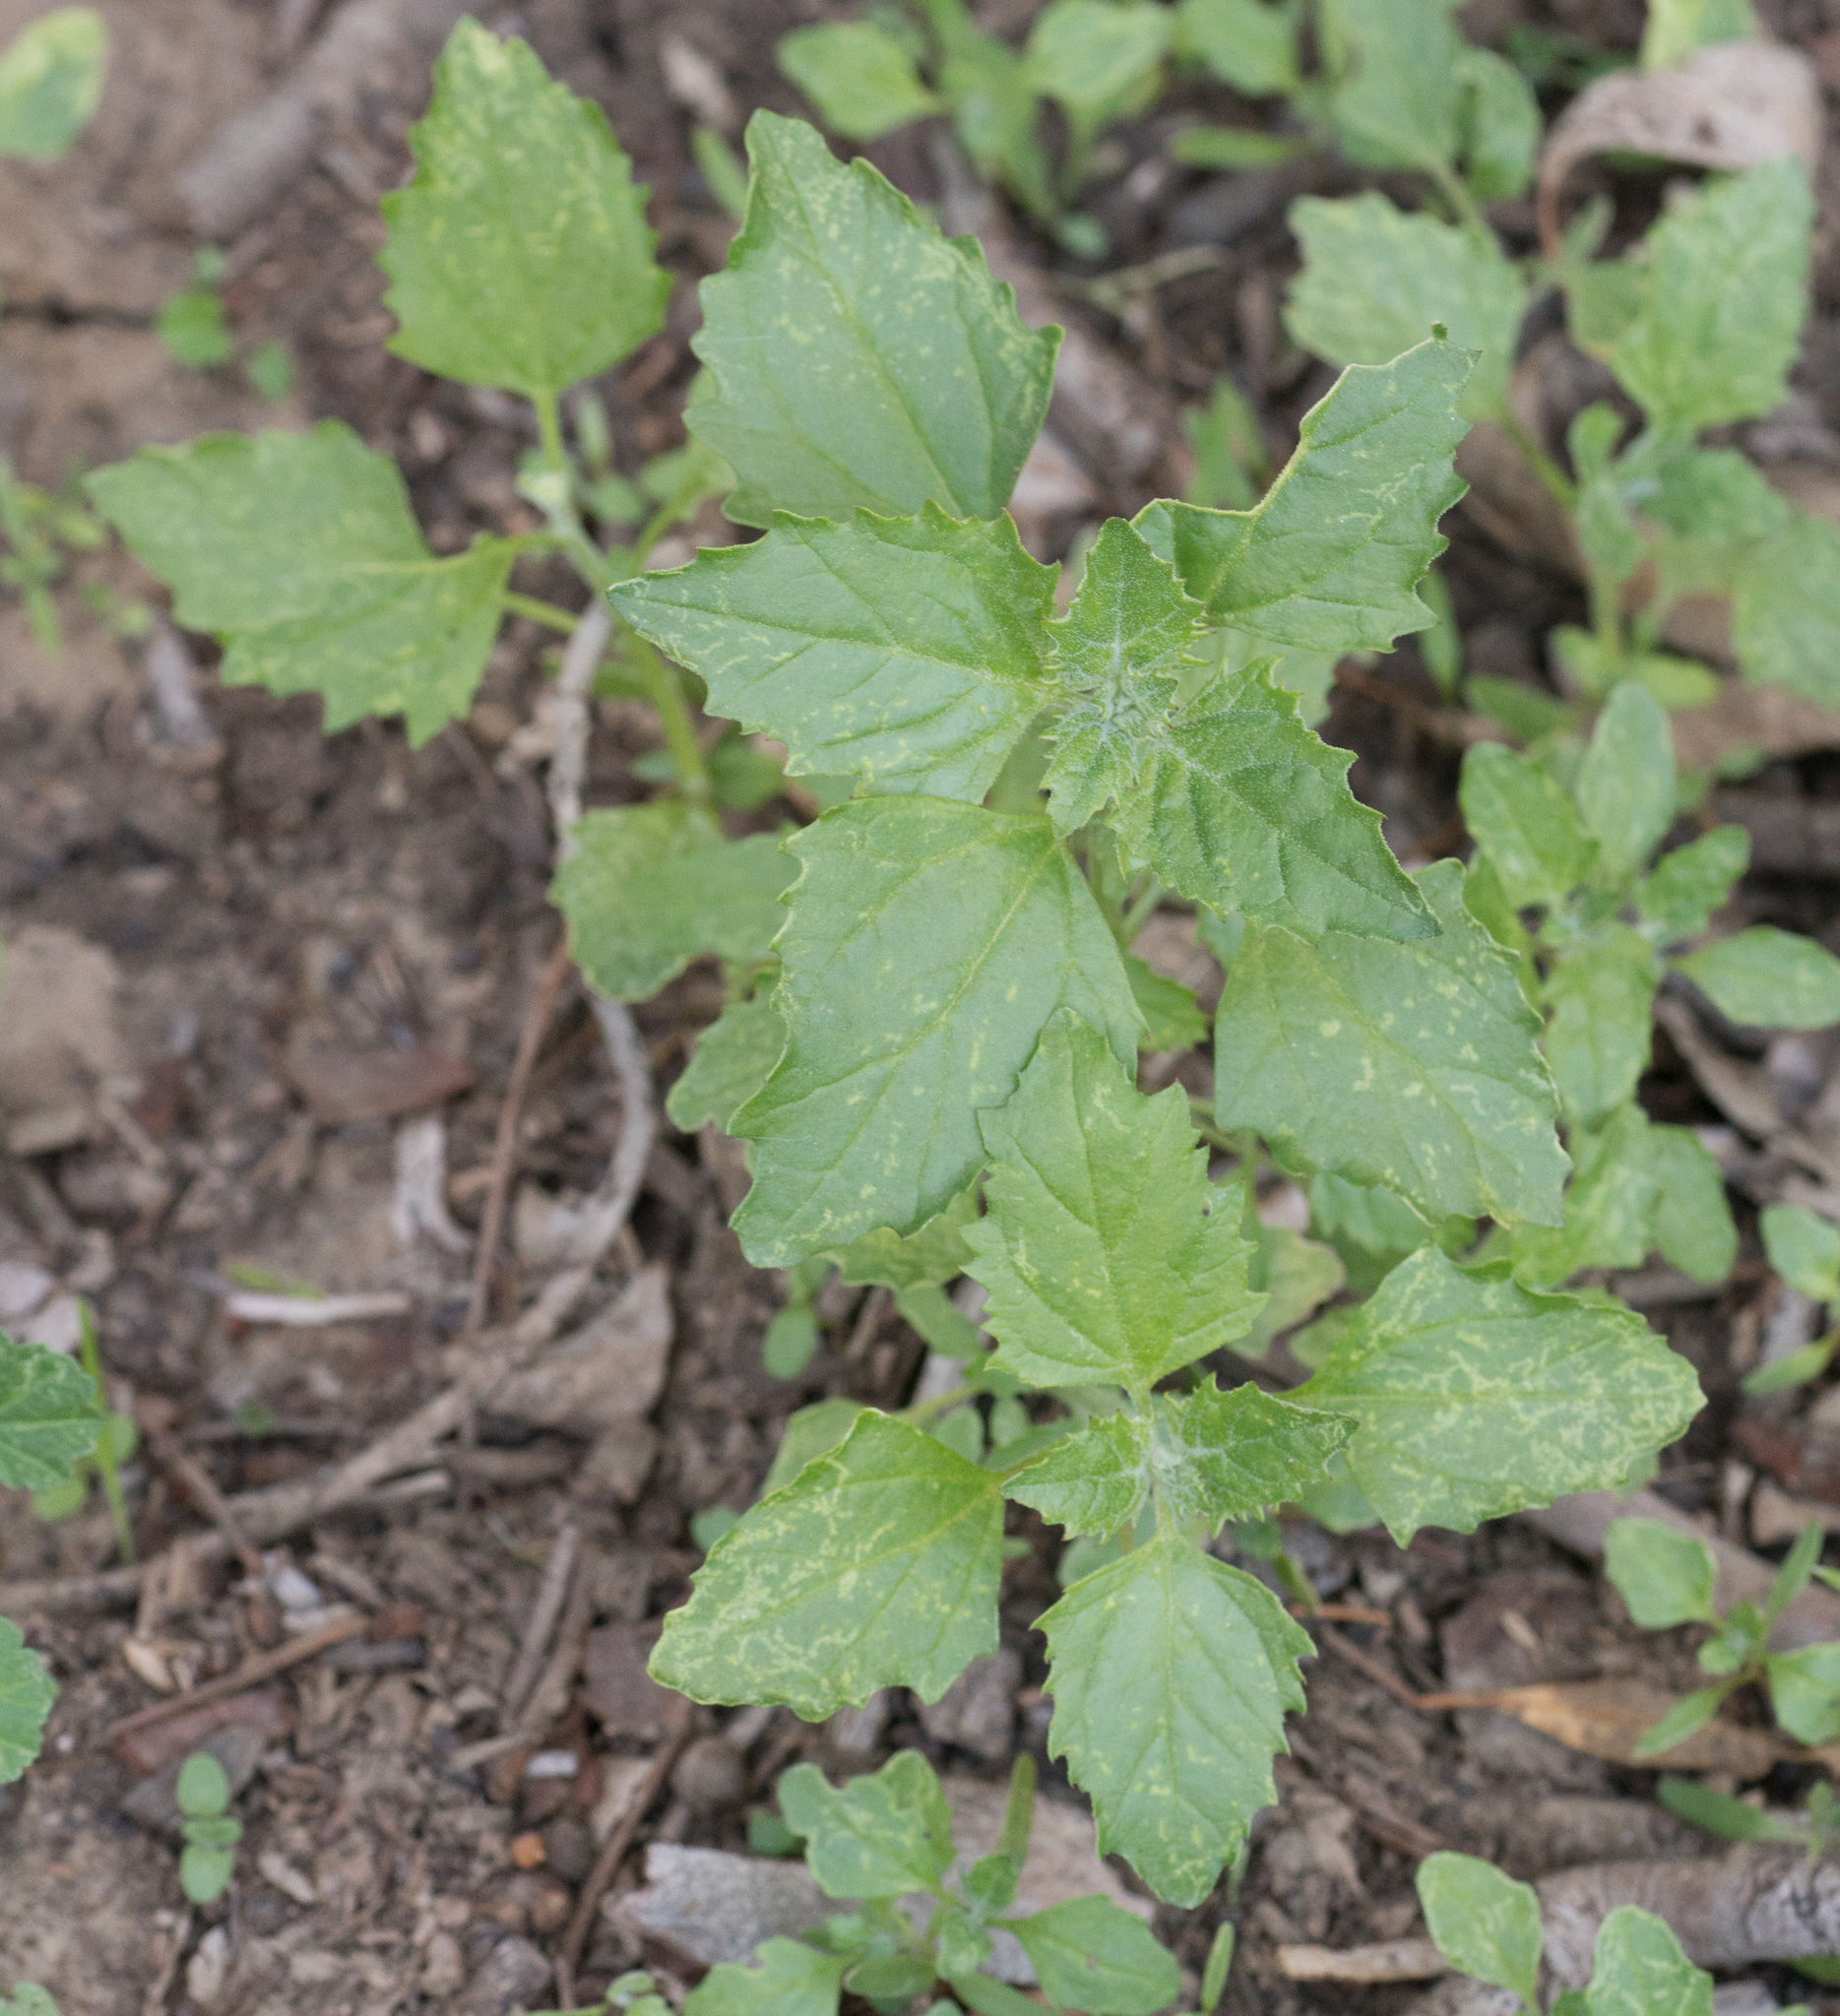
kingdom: Plantae
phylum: Tracheophyta
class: Magnoliopsida
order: Caryophyllales
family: Amaranthaceae
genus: Chenopodiastrum
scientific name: Chenopodiastrum murale
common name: Sowbane
